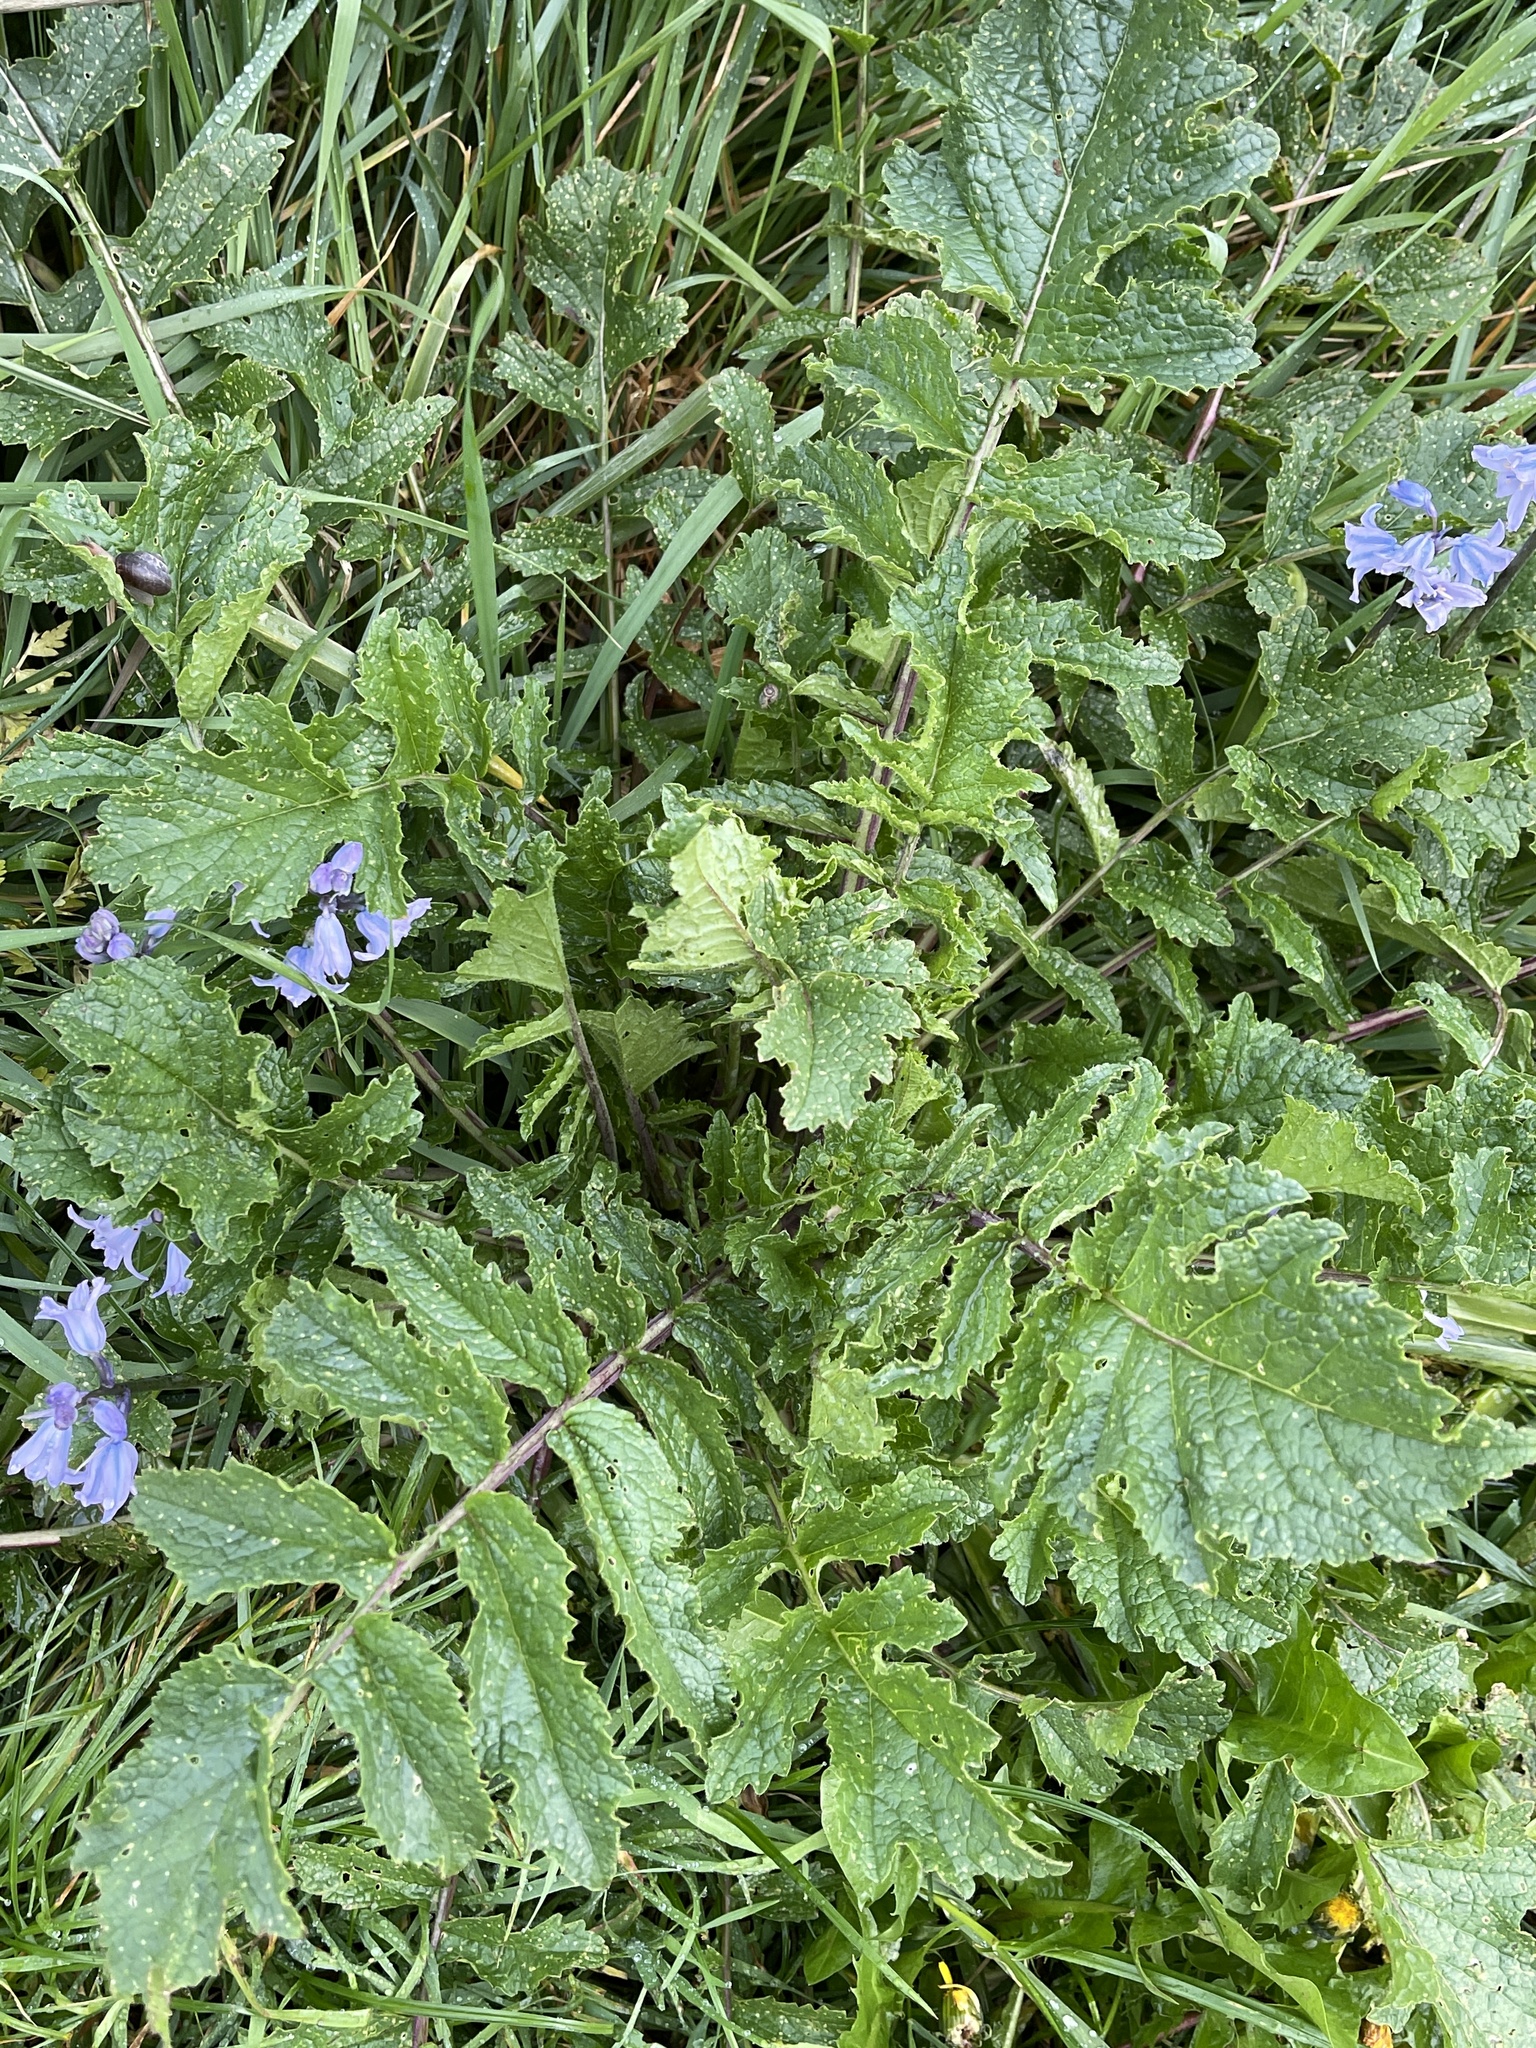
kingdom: Plantae
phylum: Tracheophyta
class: Magnoliopsida
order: Brassicales
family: Brassicaceae
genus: Raphanus
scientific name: Raphanus raphanistrum
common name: Wild radish
